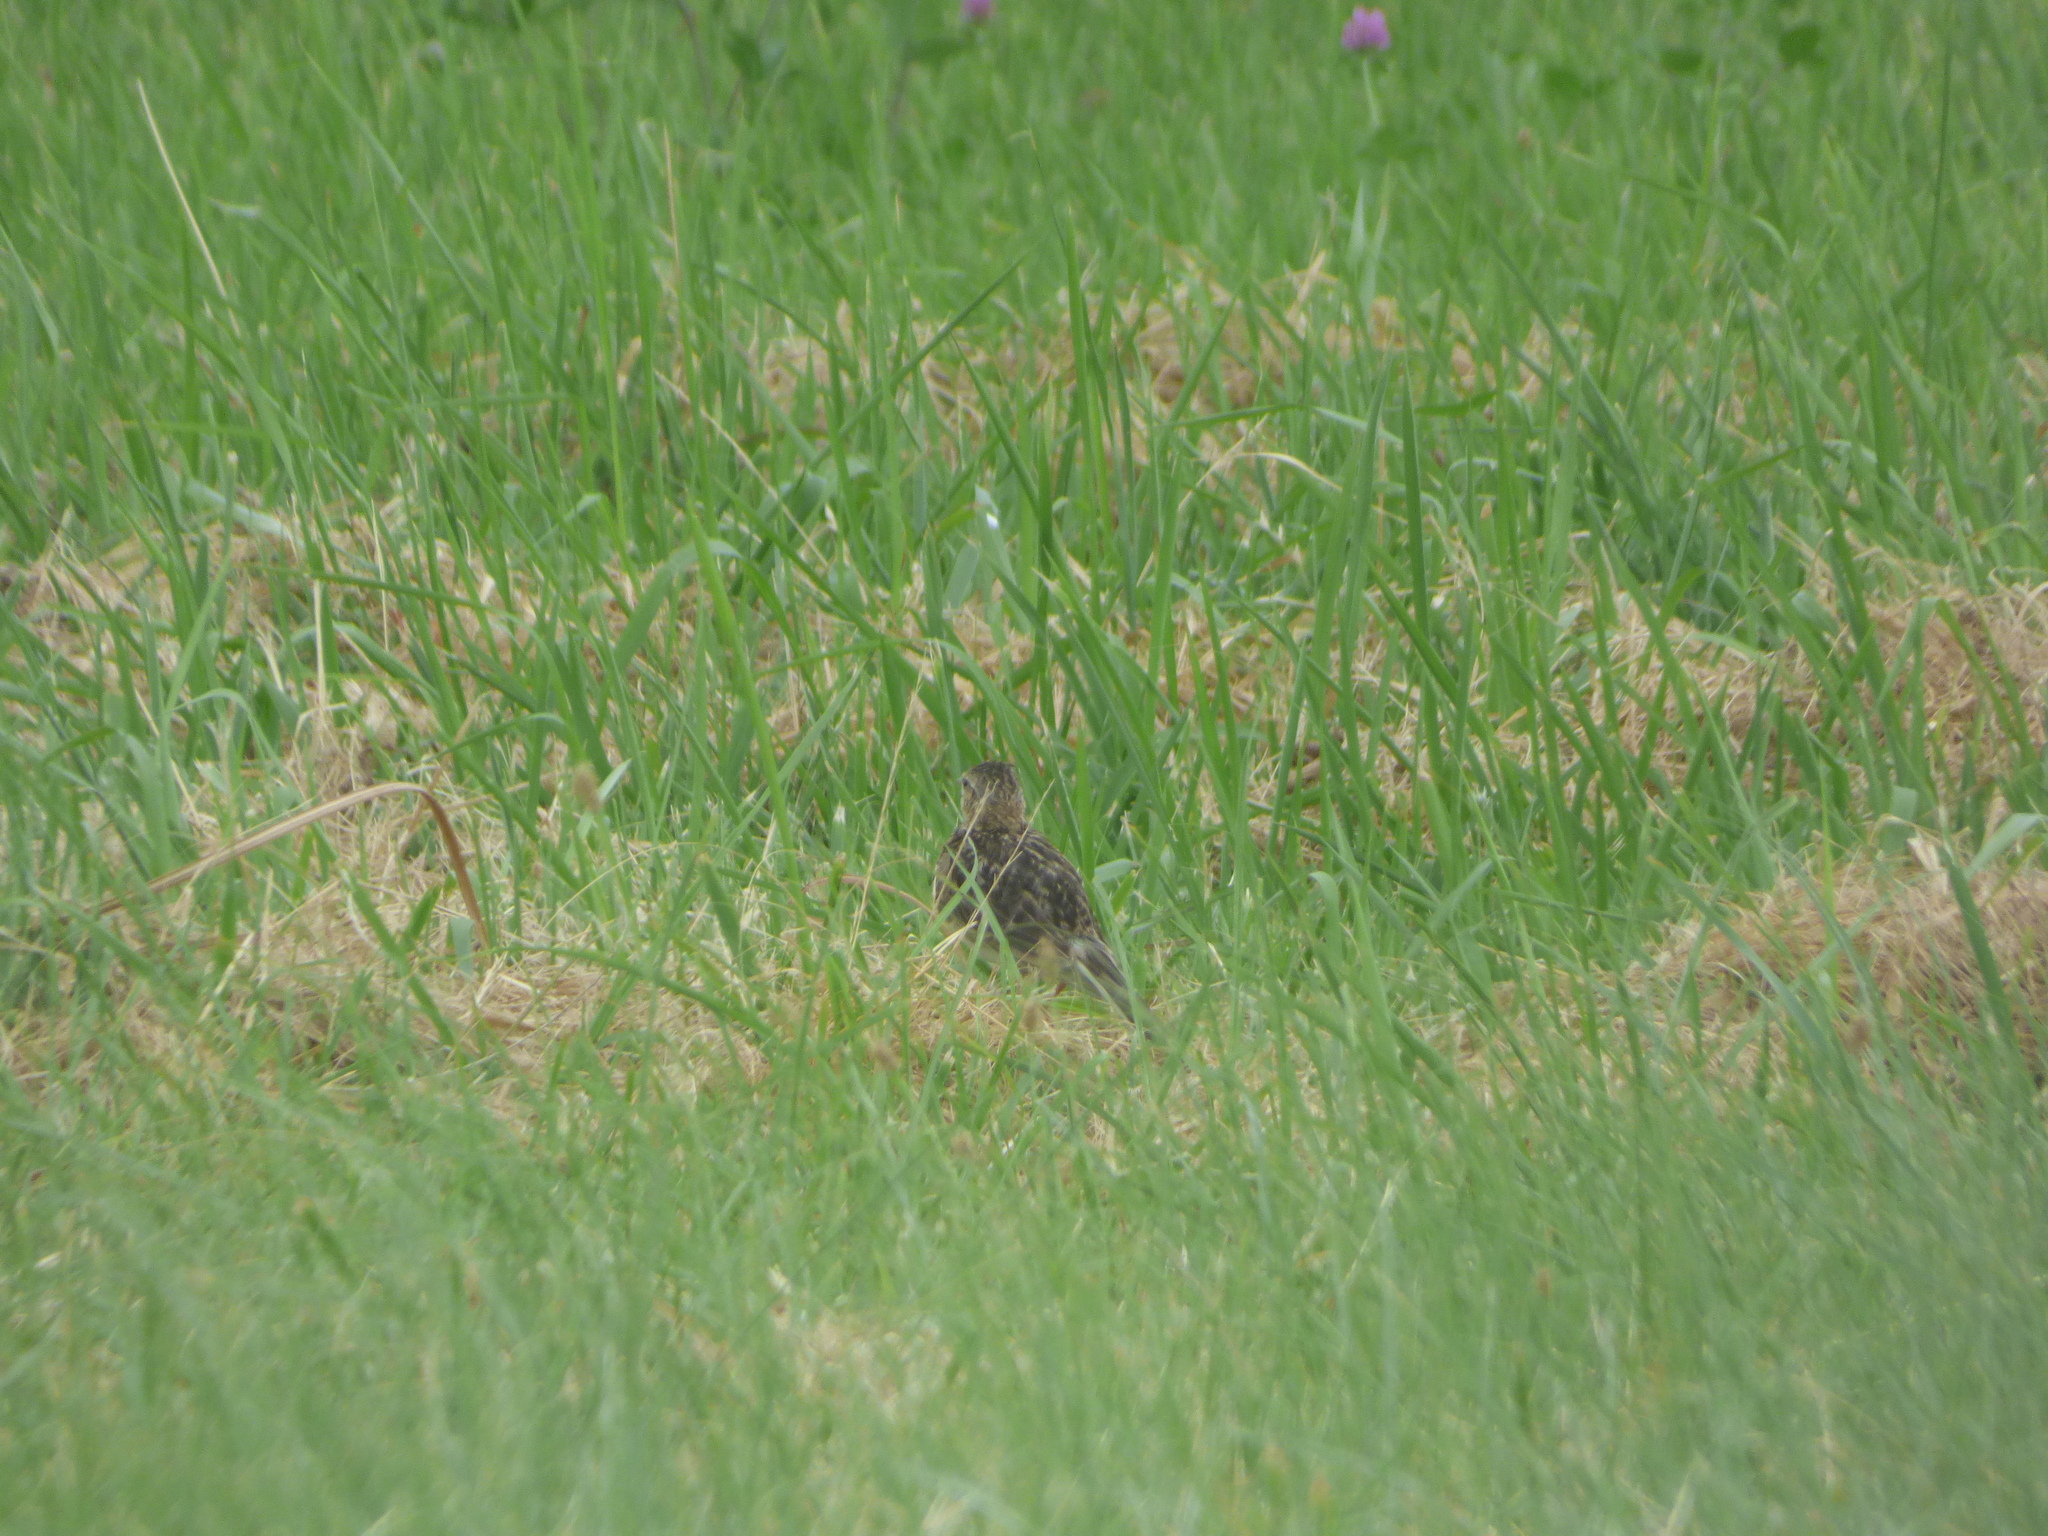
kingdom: Animalia
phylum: Chordata
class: Aves
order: Passeriformes
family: Alaudidae
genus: Alauda
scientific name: Alauda arvensis
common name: Eurasian skylark
